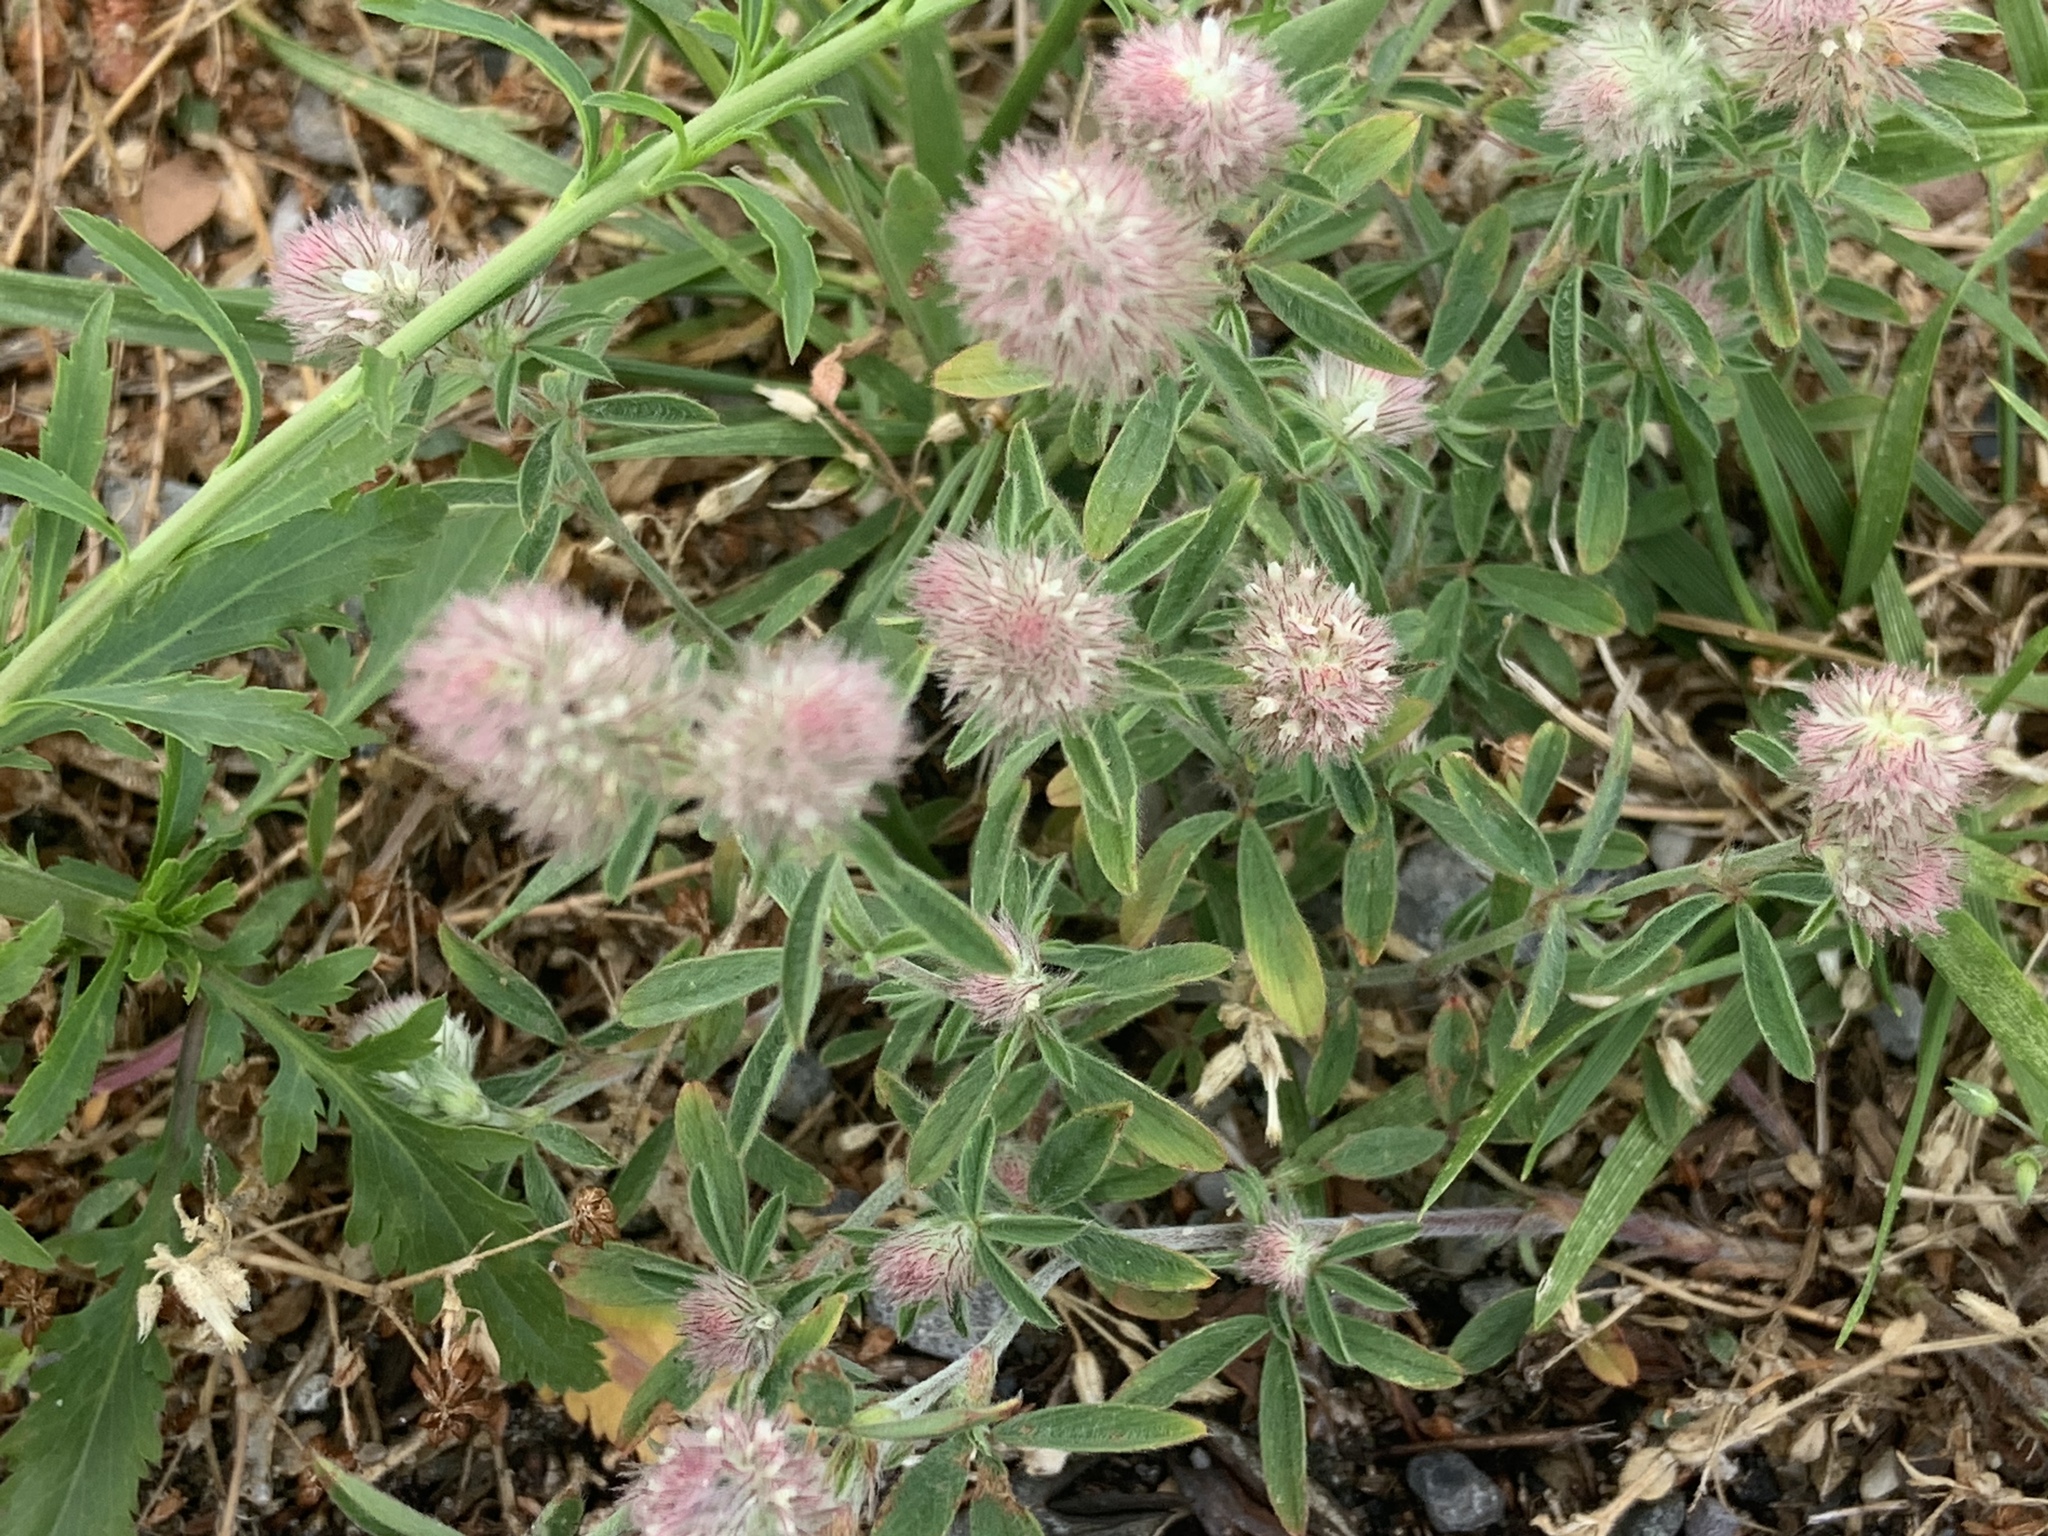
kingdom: Plantae
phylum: Tracheophyta
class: Magnoliopsida
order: Fabales
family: Fabaceae
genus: Trifolium
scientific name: Trifolium arvense
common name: Hare's-foot clover
